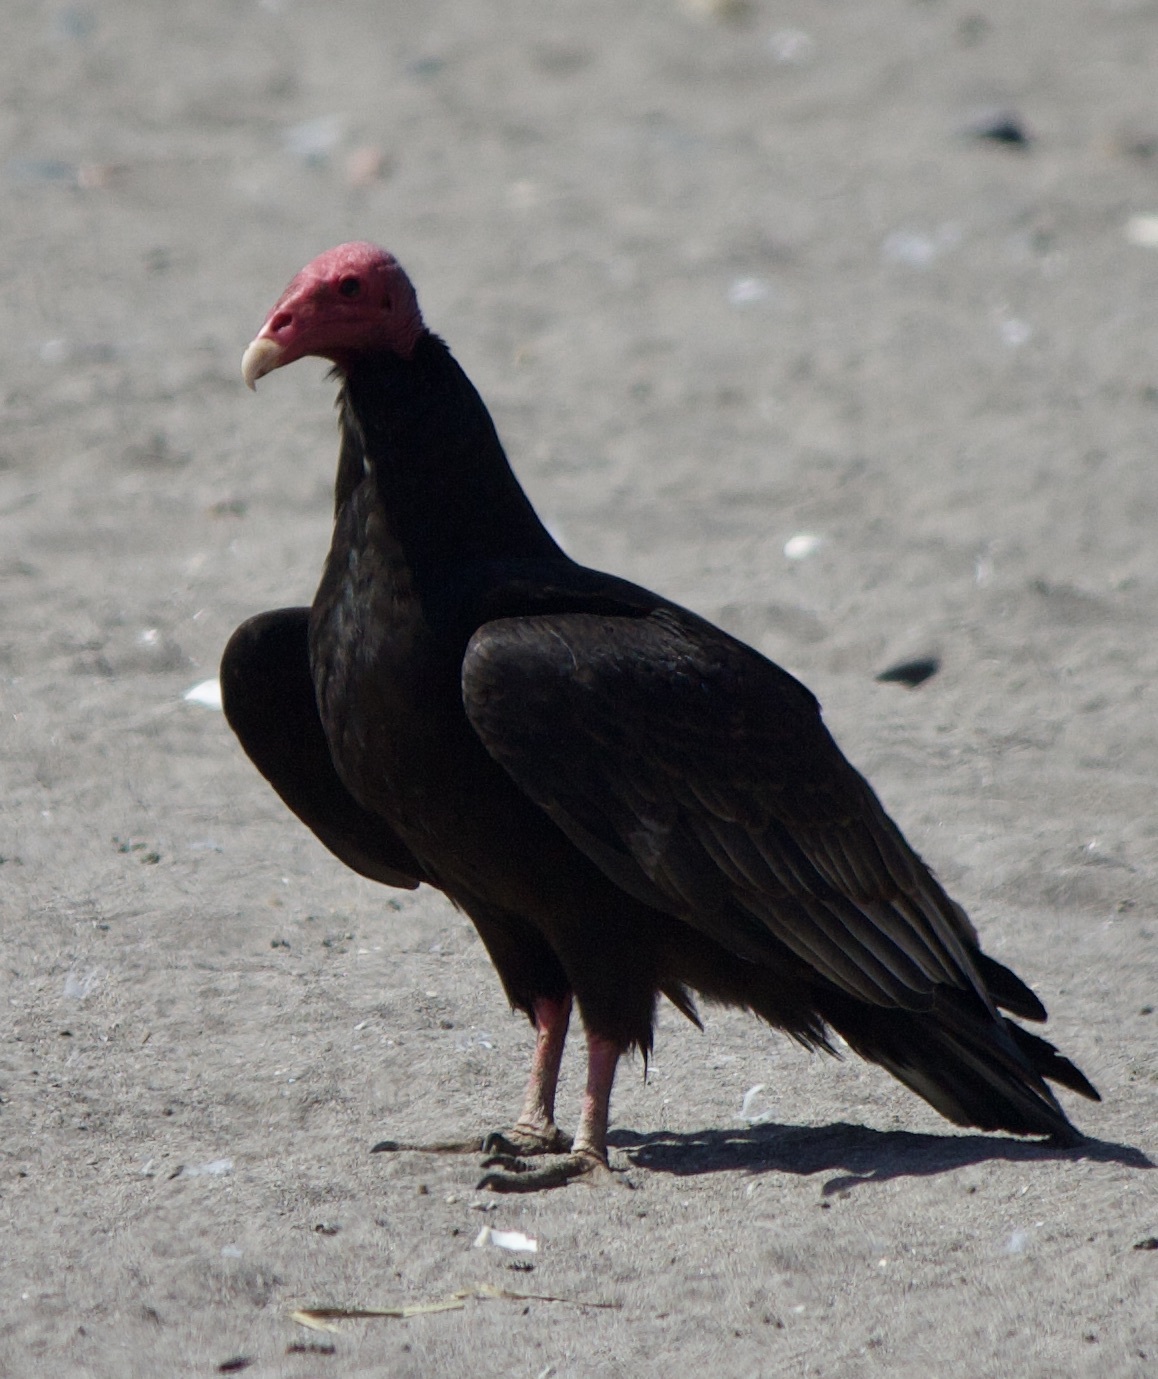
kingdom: Animalia
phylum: Chordata
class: Aves
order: Accipitriformes
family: Cathartidae
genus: Cathartes
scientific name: Cathartes aura
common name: Turkey vulture
